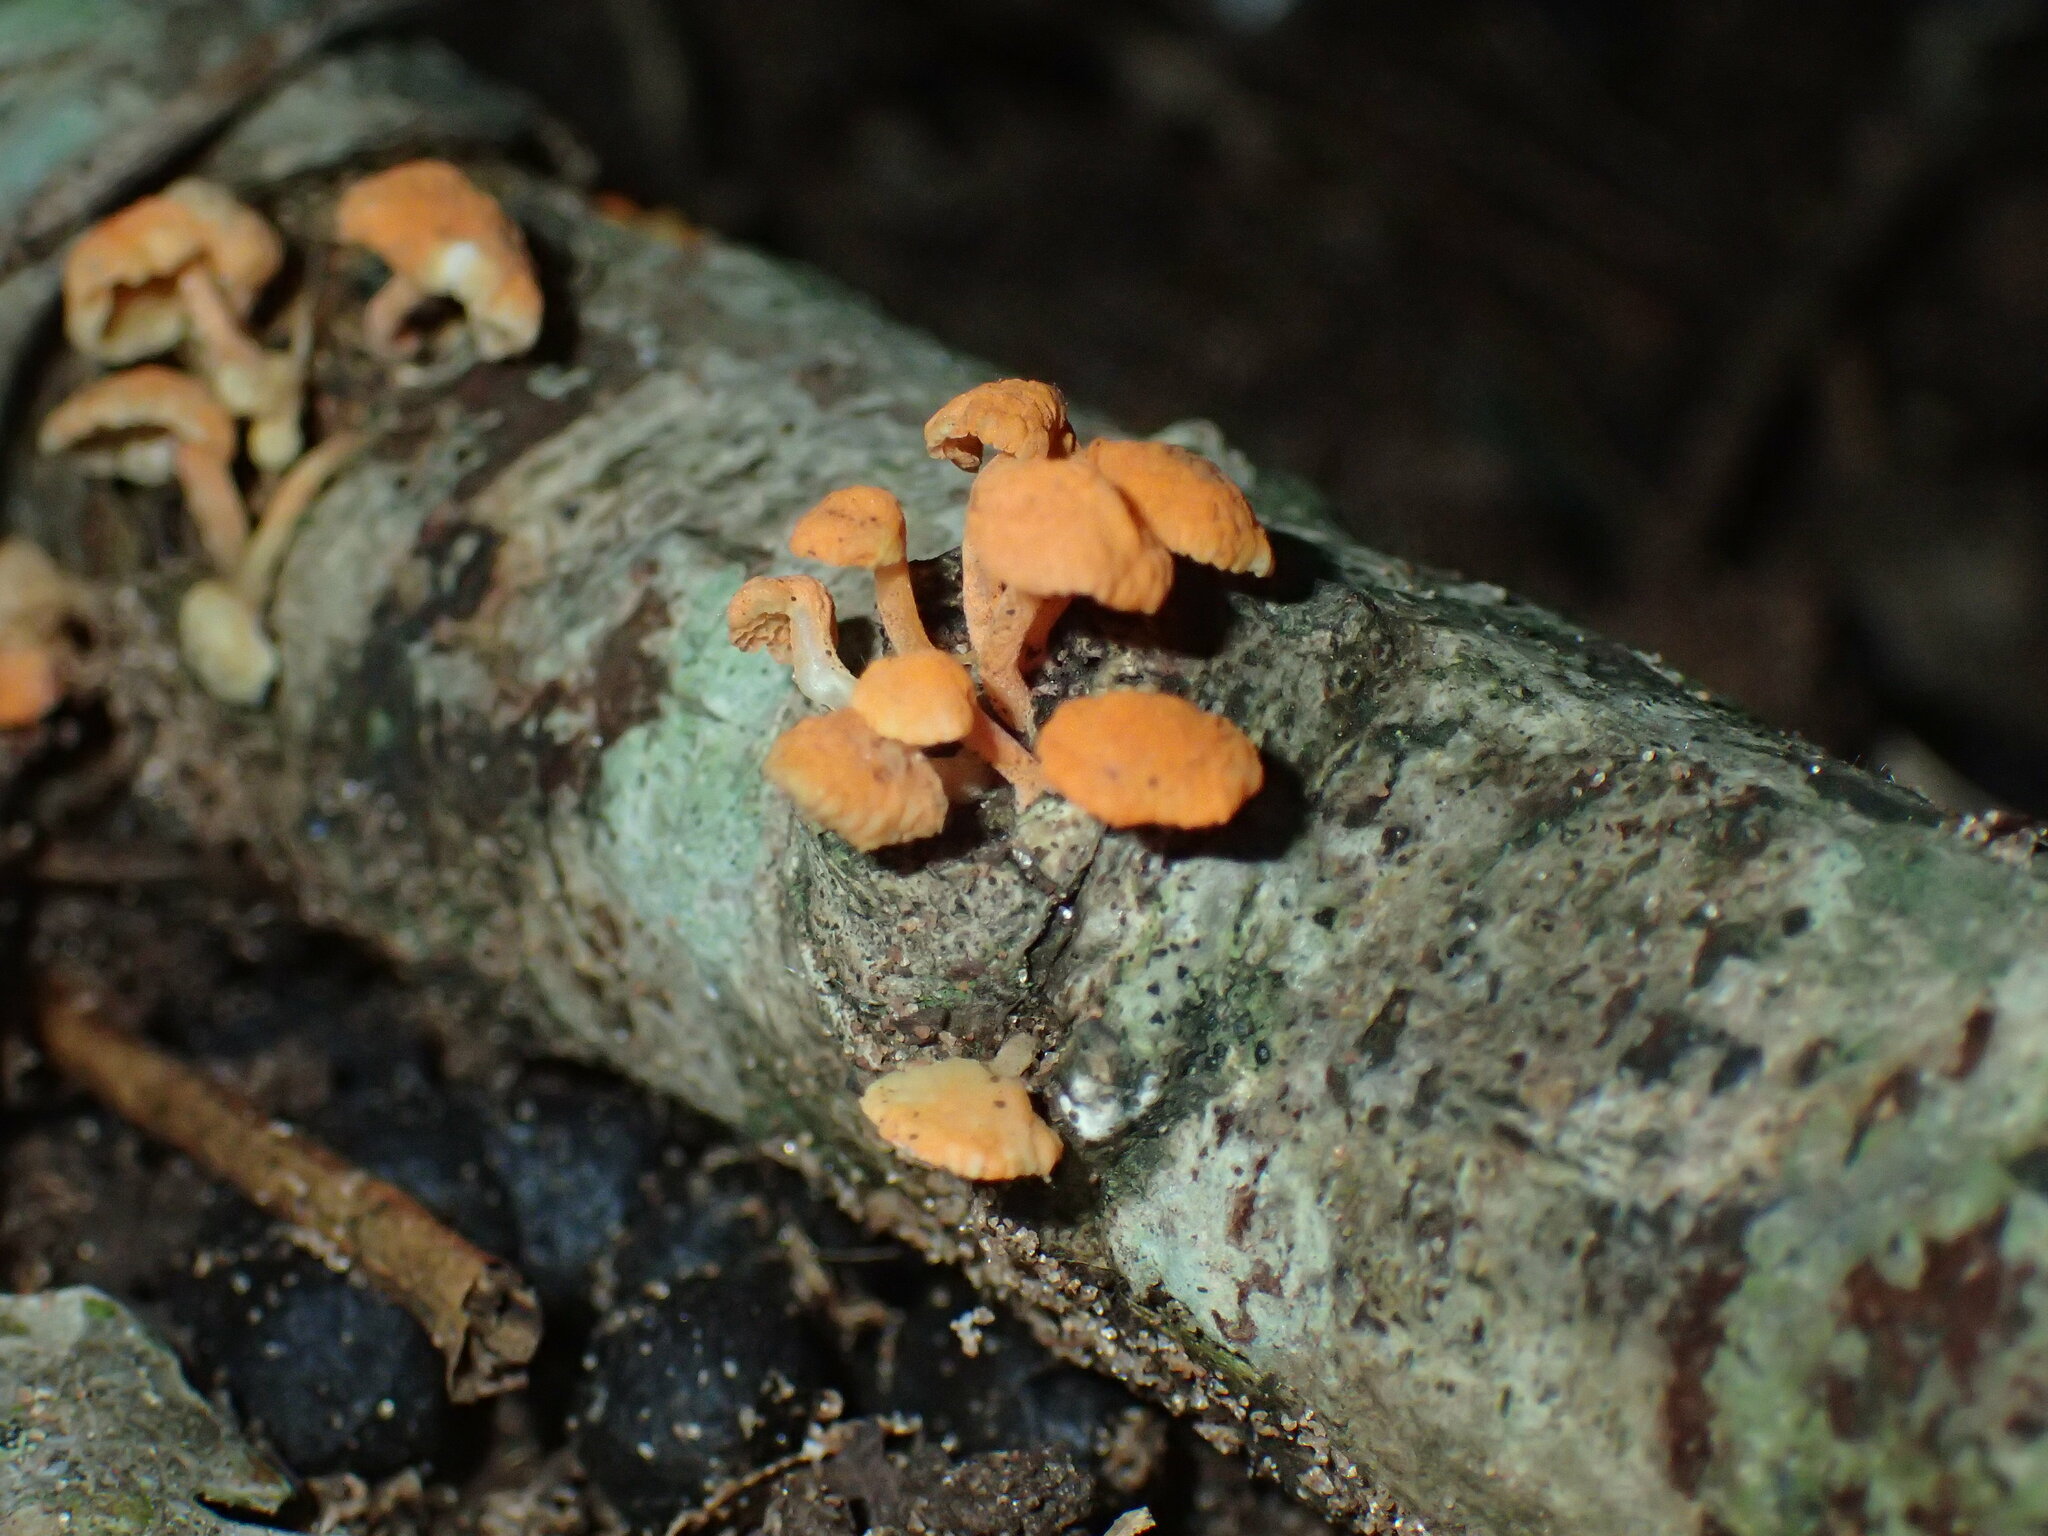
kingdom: Fungi
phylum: Basidiomycota
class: Agaricomycetes
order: Agaricales
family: Mycenaceae
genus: Favolaschia
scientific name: Favolaschia claudopus
